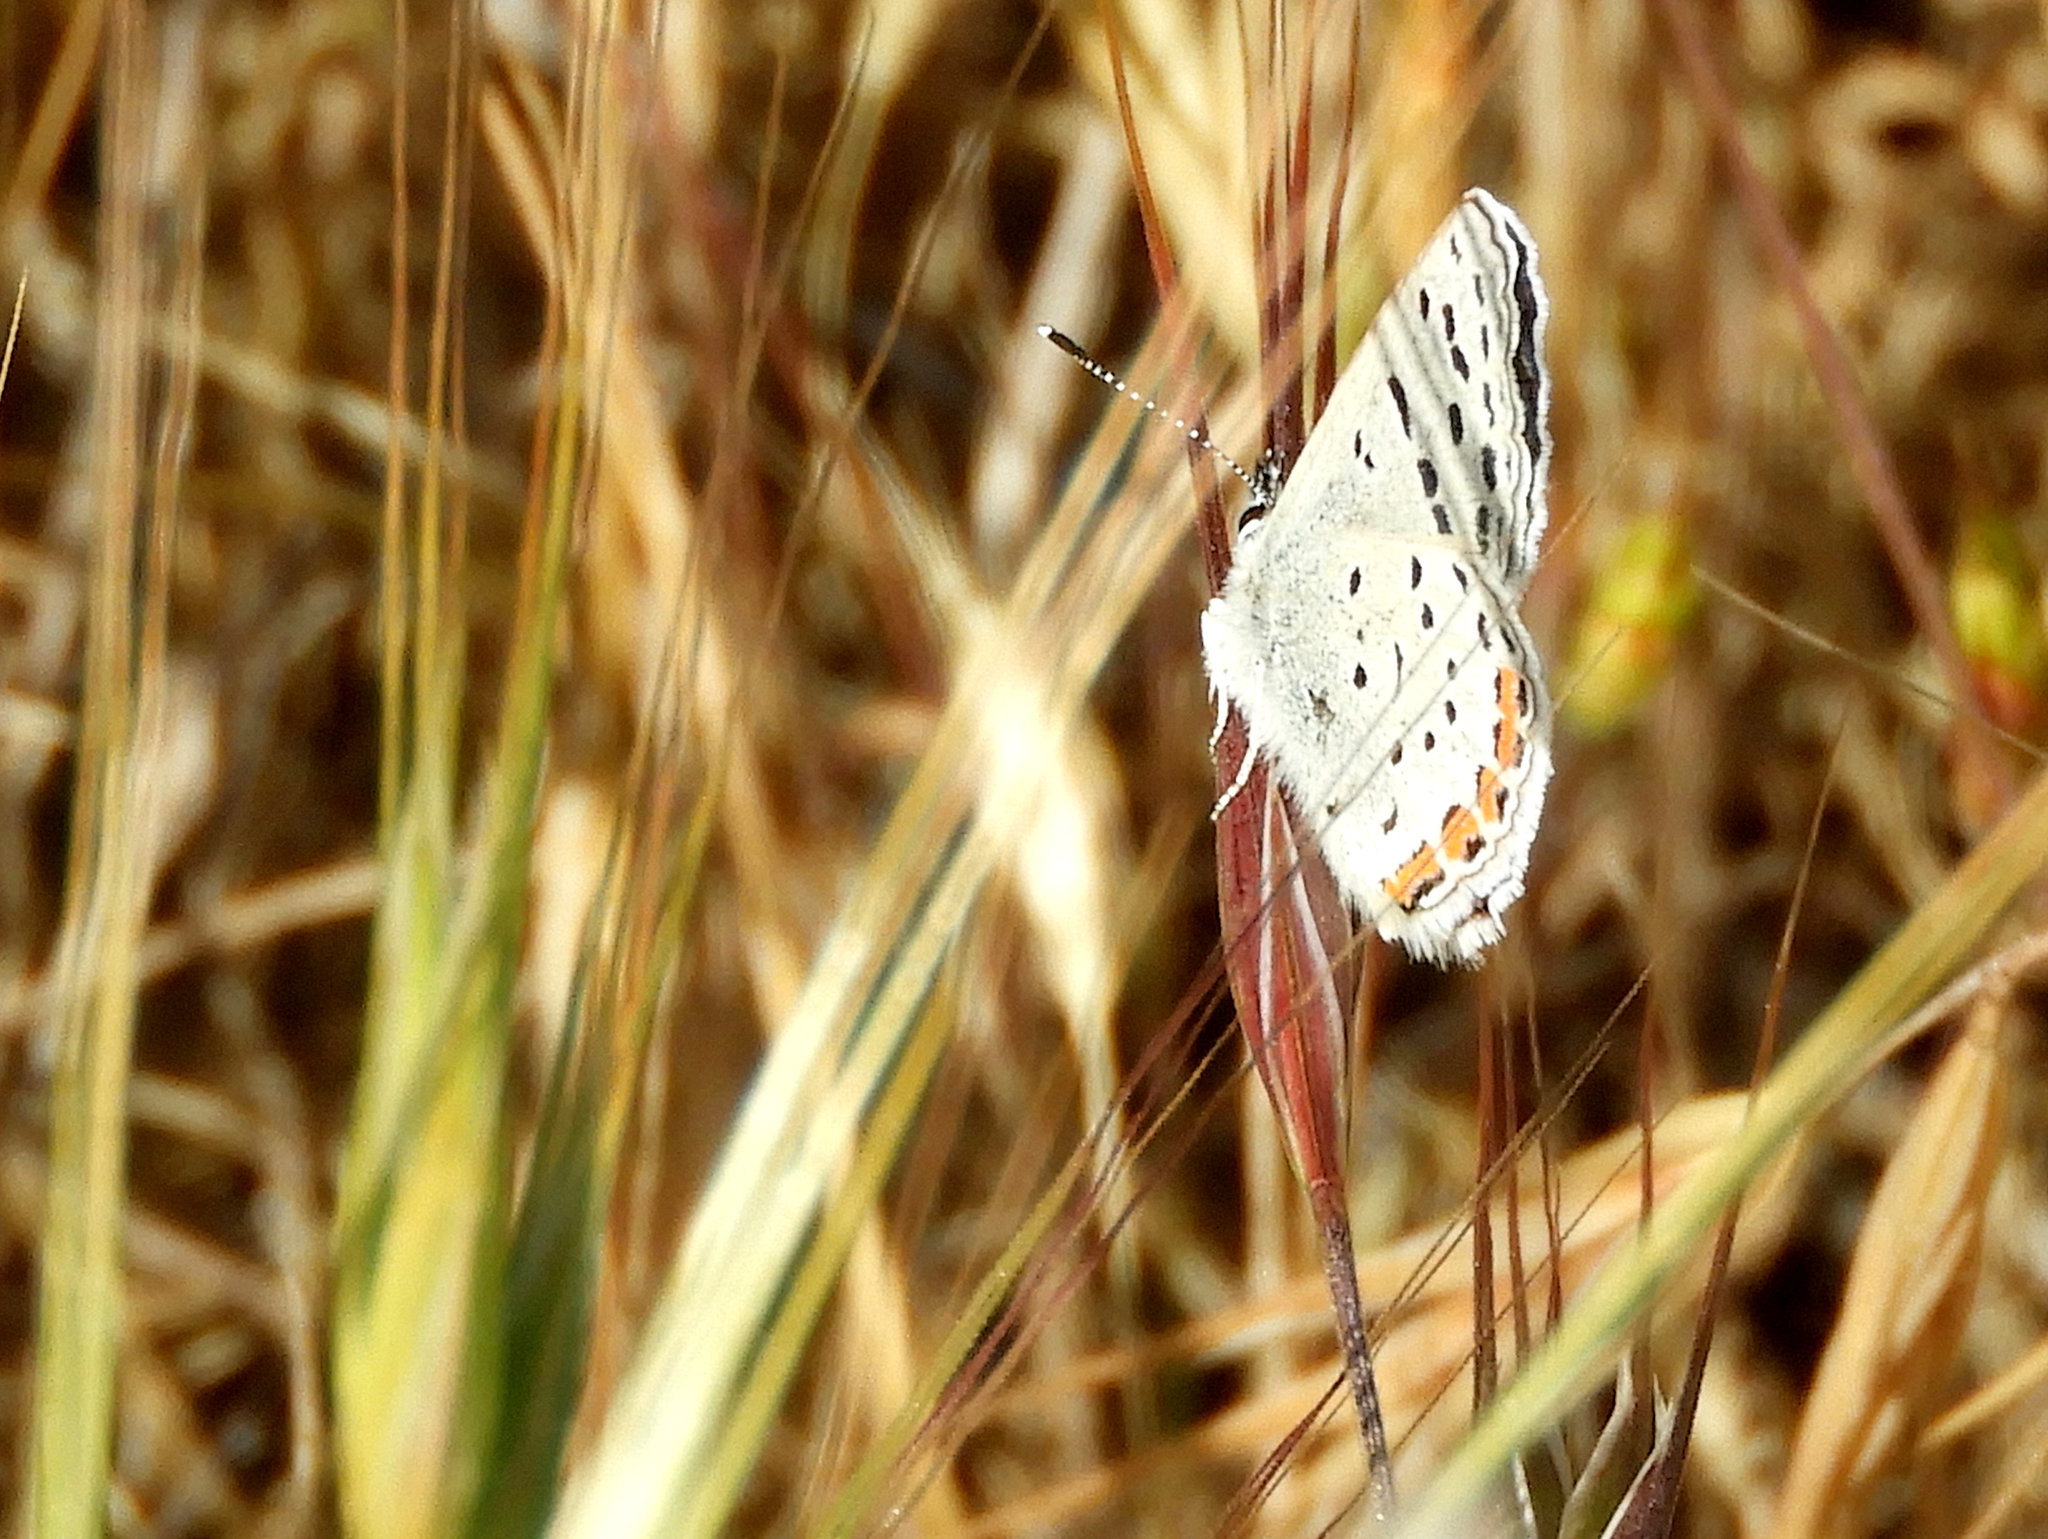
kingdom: Animalia
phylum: Arthropoda
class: Insecta
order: Lepidoptera
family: Lycaenidae
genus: Icaricia
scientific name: Icaricia acmon
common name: Acmon blue
